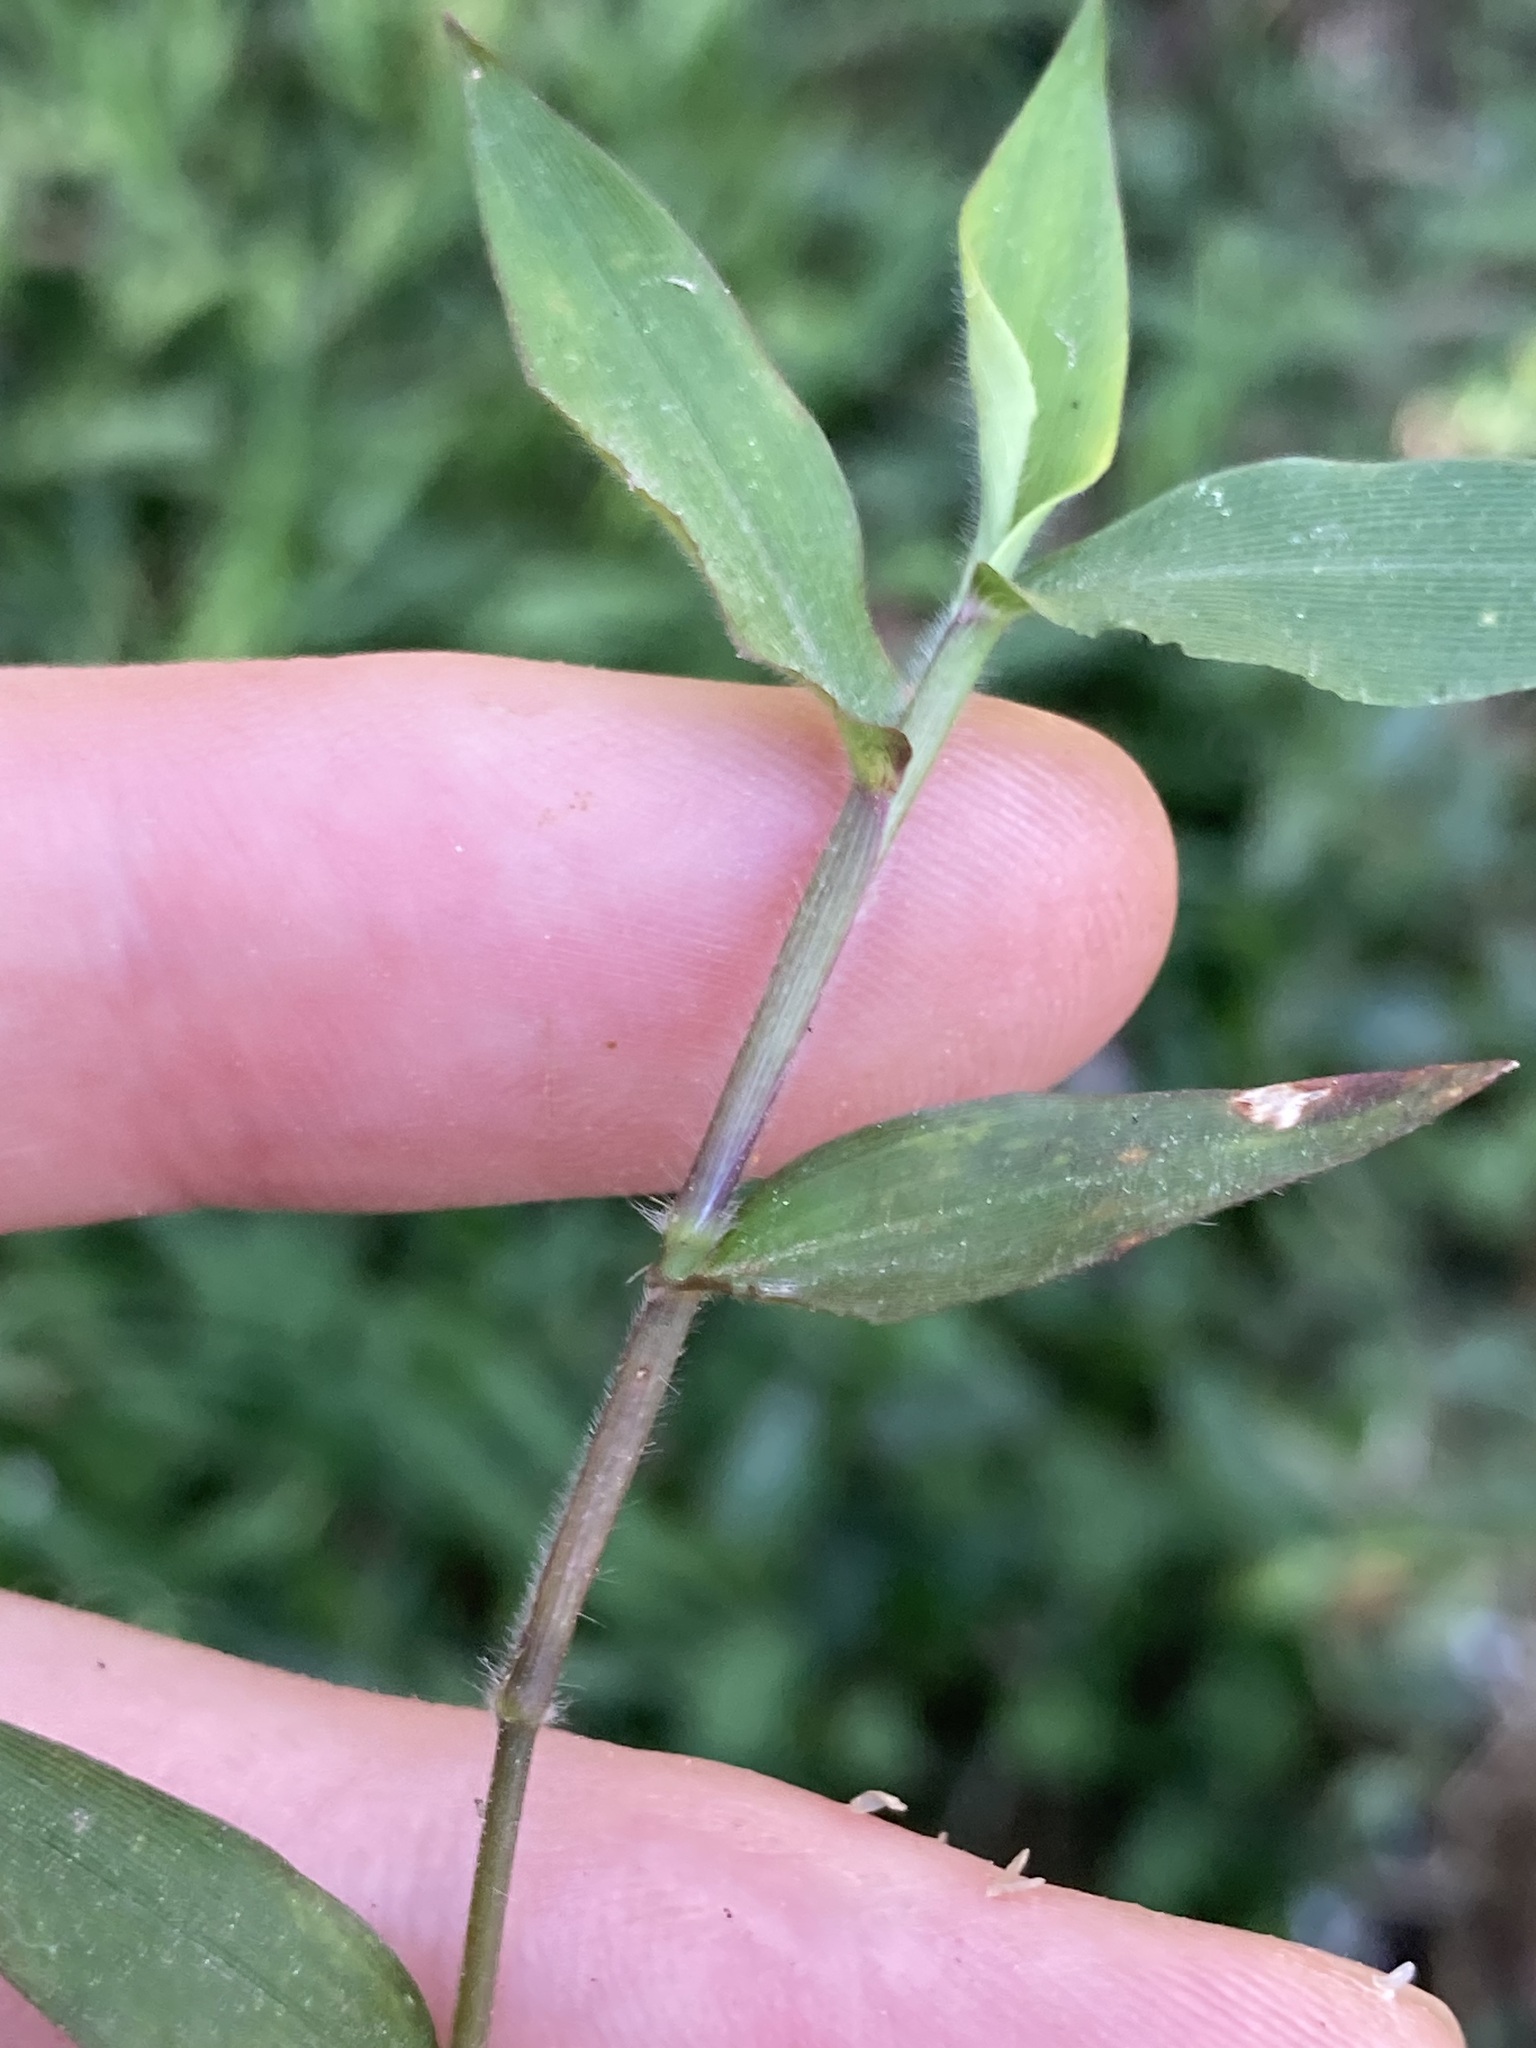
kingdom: Plantae
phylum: Tracheophyta
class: Liliopsida
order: Poales
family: Poaceae
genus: Oplismenus
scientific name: Oplismenus hirtellus
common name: Basketgrass
